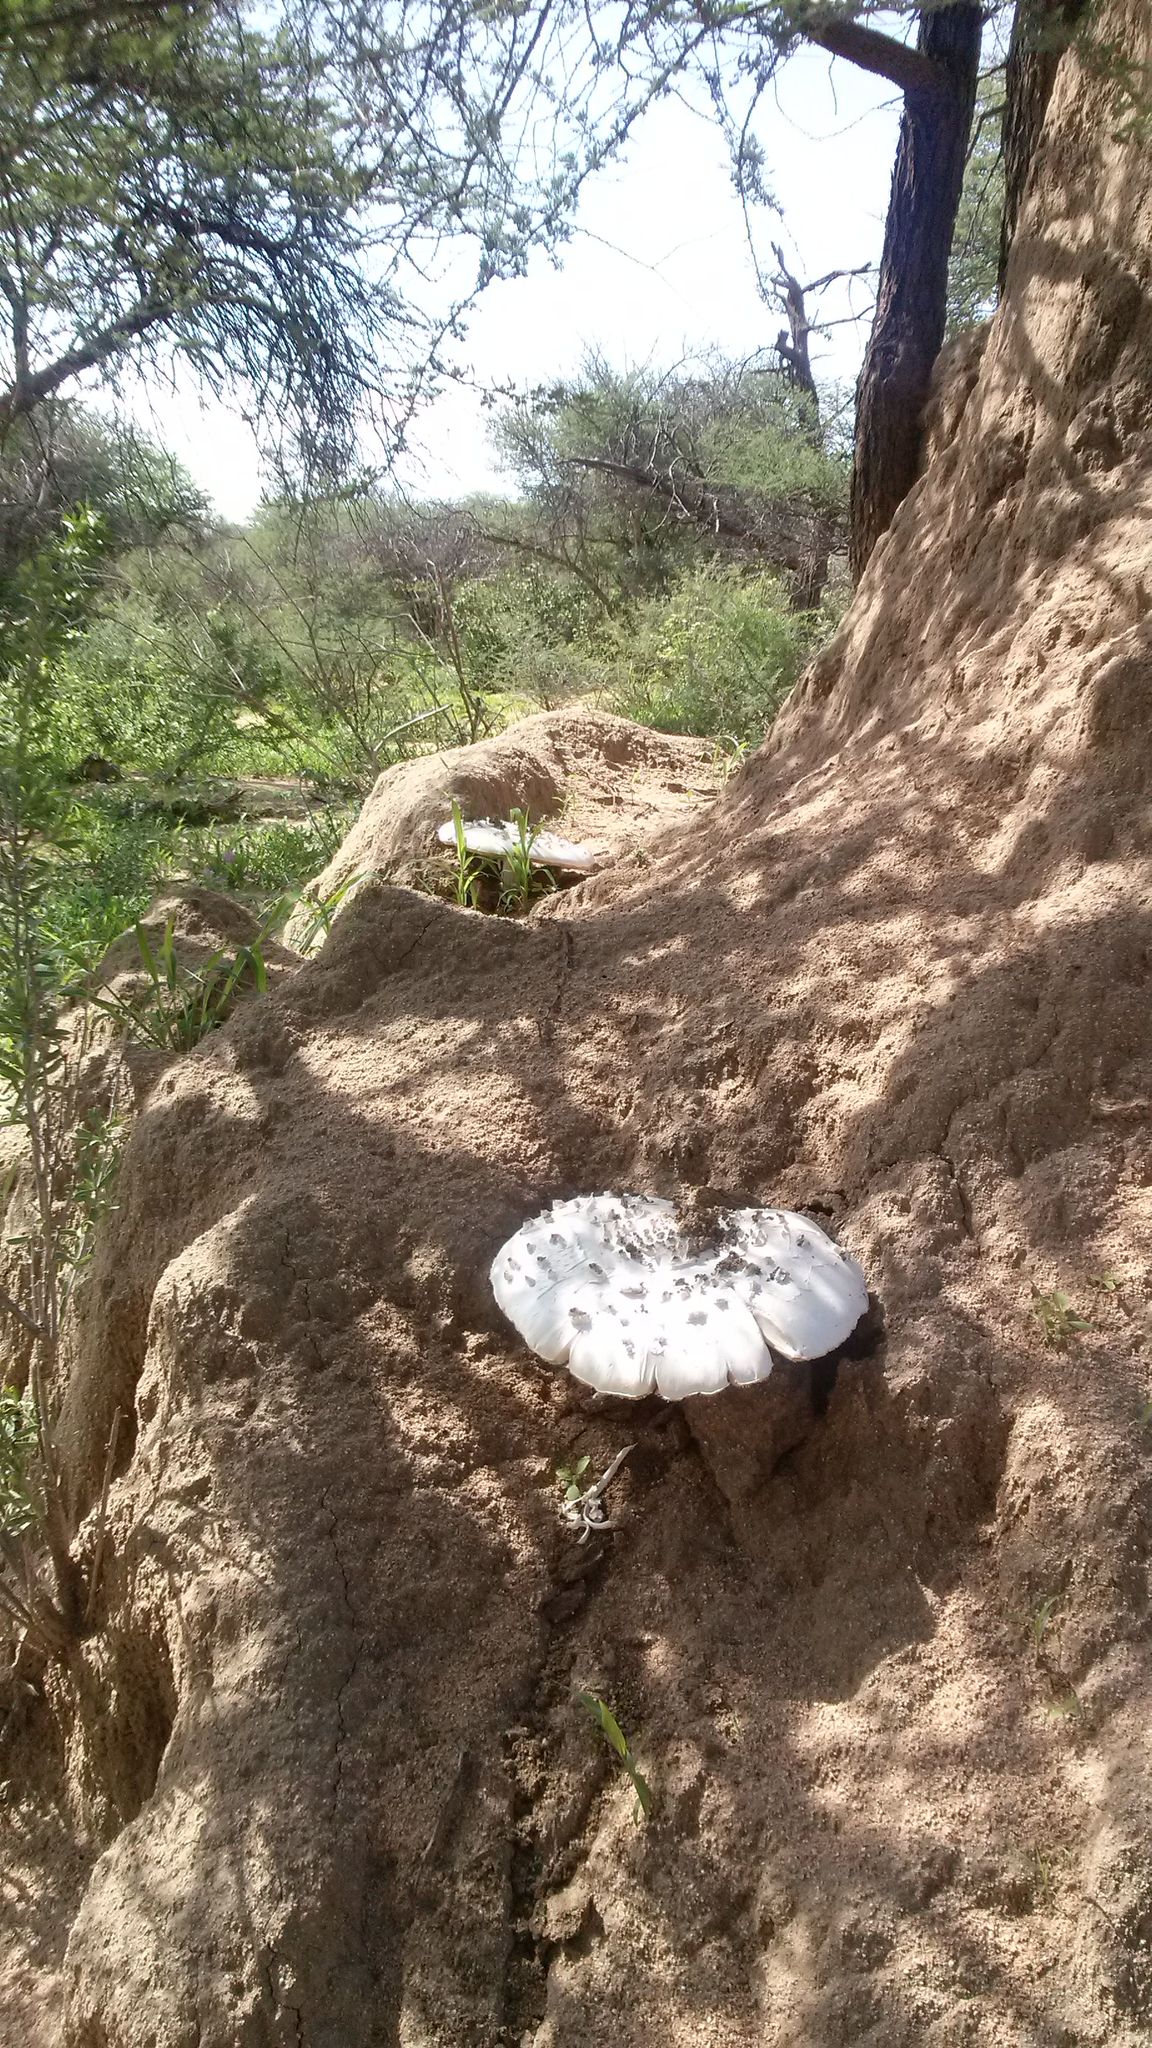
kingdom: Fungi
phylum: Basidiomycota
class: Agaricomycetes
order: Agaricales
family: Lyophyllaceae
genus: Termitomyces
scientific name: Termitomyces schimperi
